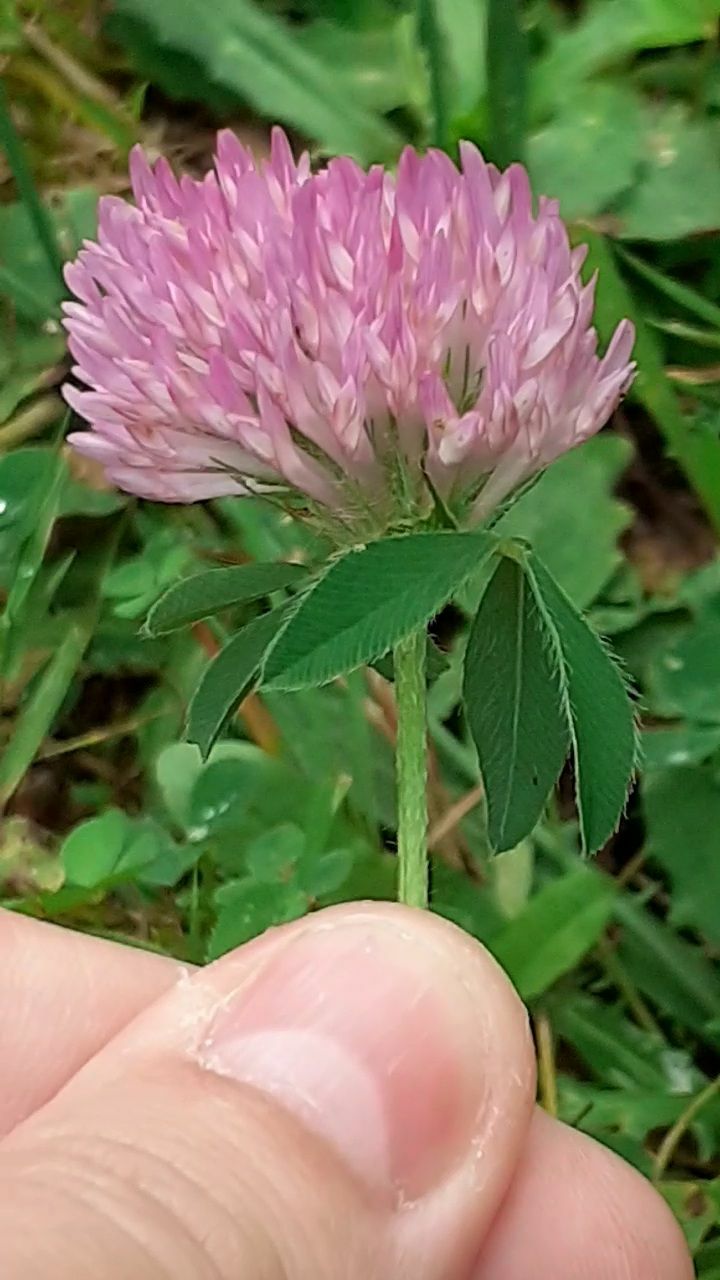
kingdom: Plantae
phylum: Tracheophyta
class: Magnoliopsida
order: Fabales
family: Fabaceae
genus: Trifolium
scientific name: Trifolium pratense
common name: Red clover
